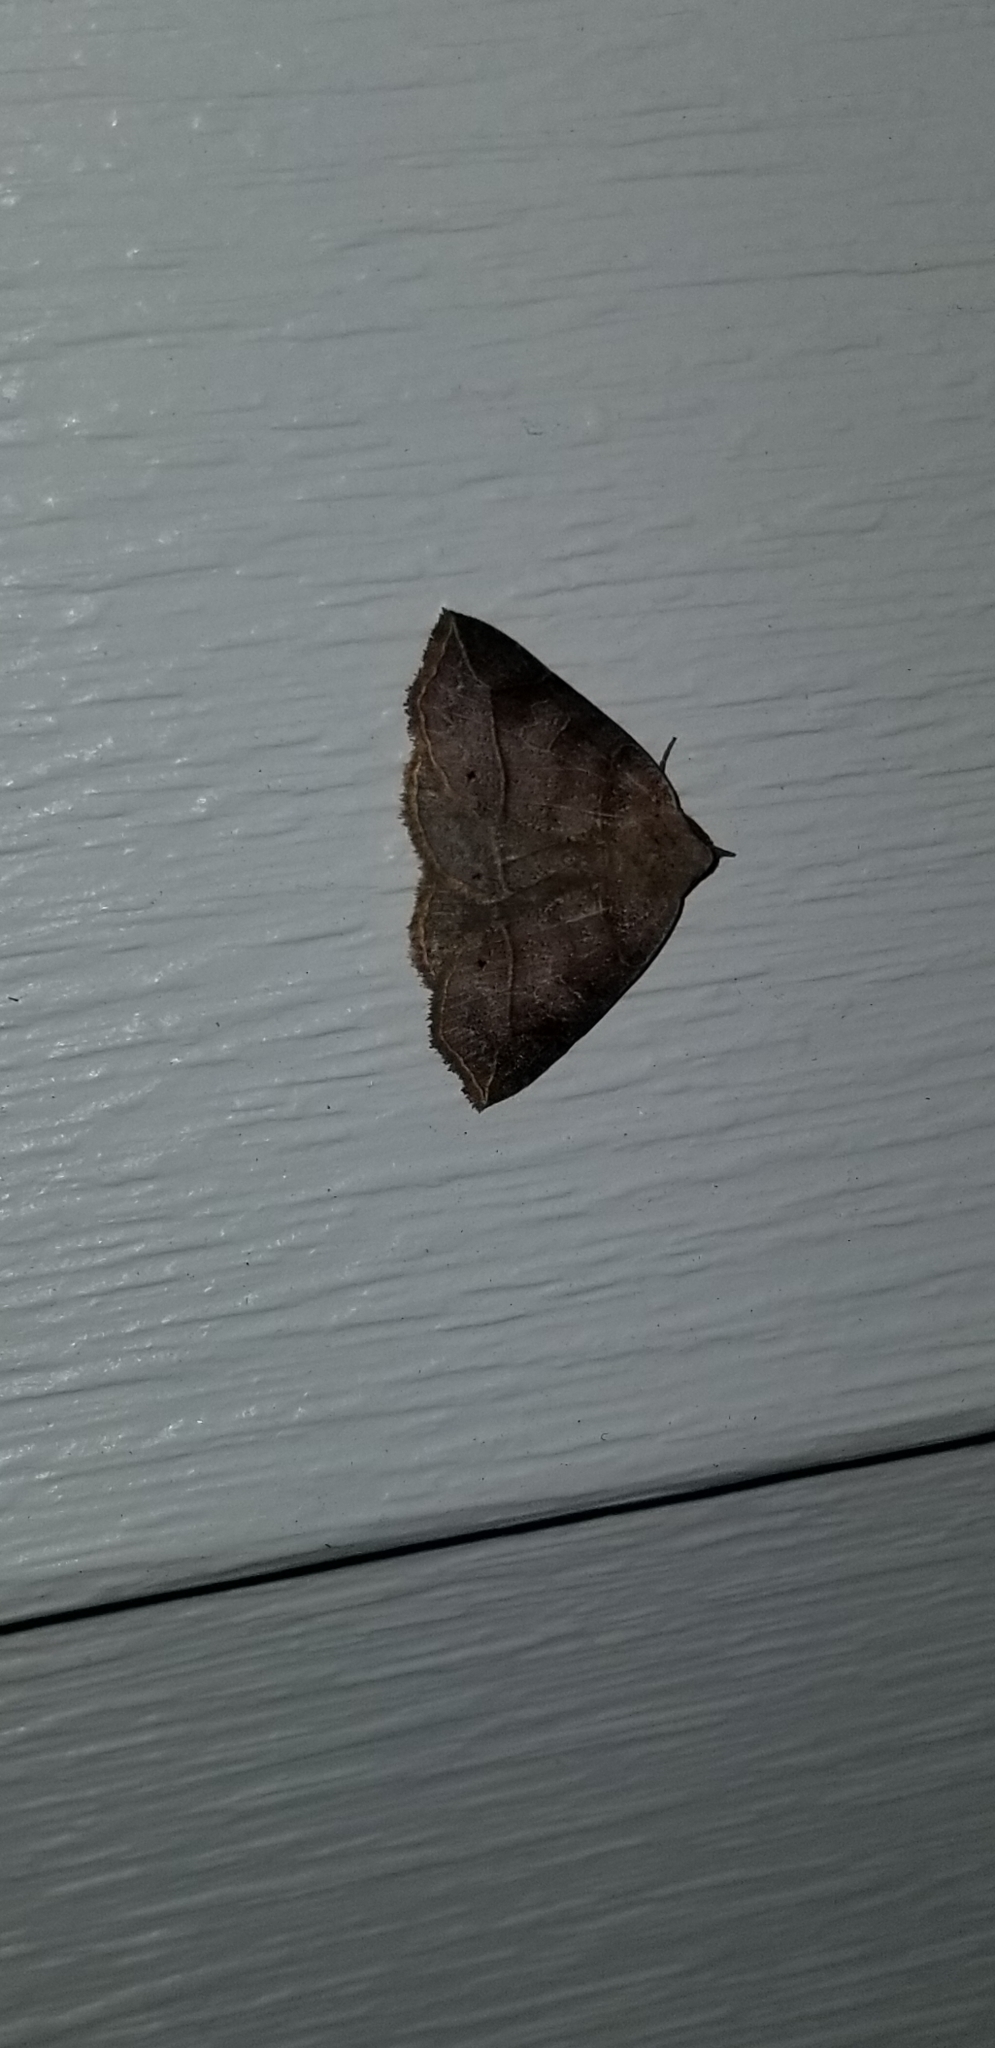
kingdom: Animalia
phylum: Arthropoda
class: Insecta
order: Lepidoptera
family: Erebidae
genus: Isogona
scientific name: Isogona tenuis
